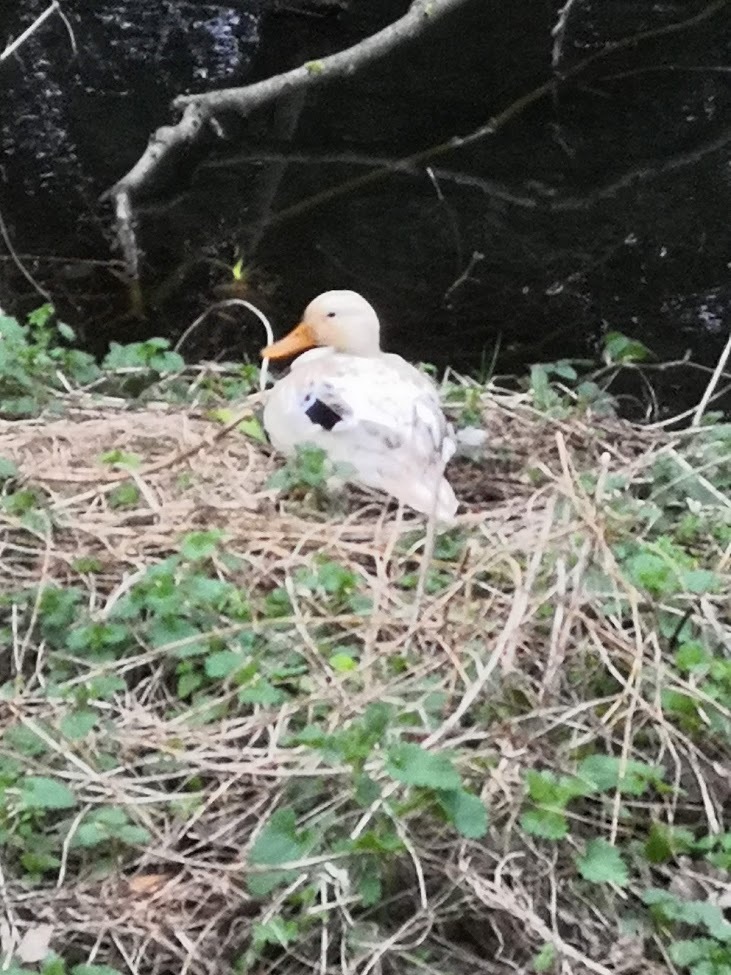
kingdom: Animalia
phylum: Chordata
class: Aves
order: Anseriformes
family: Anatidae
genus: Anas
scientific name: Anas platyrhynchos
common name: Mallard
